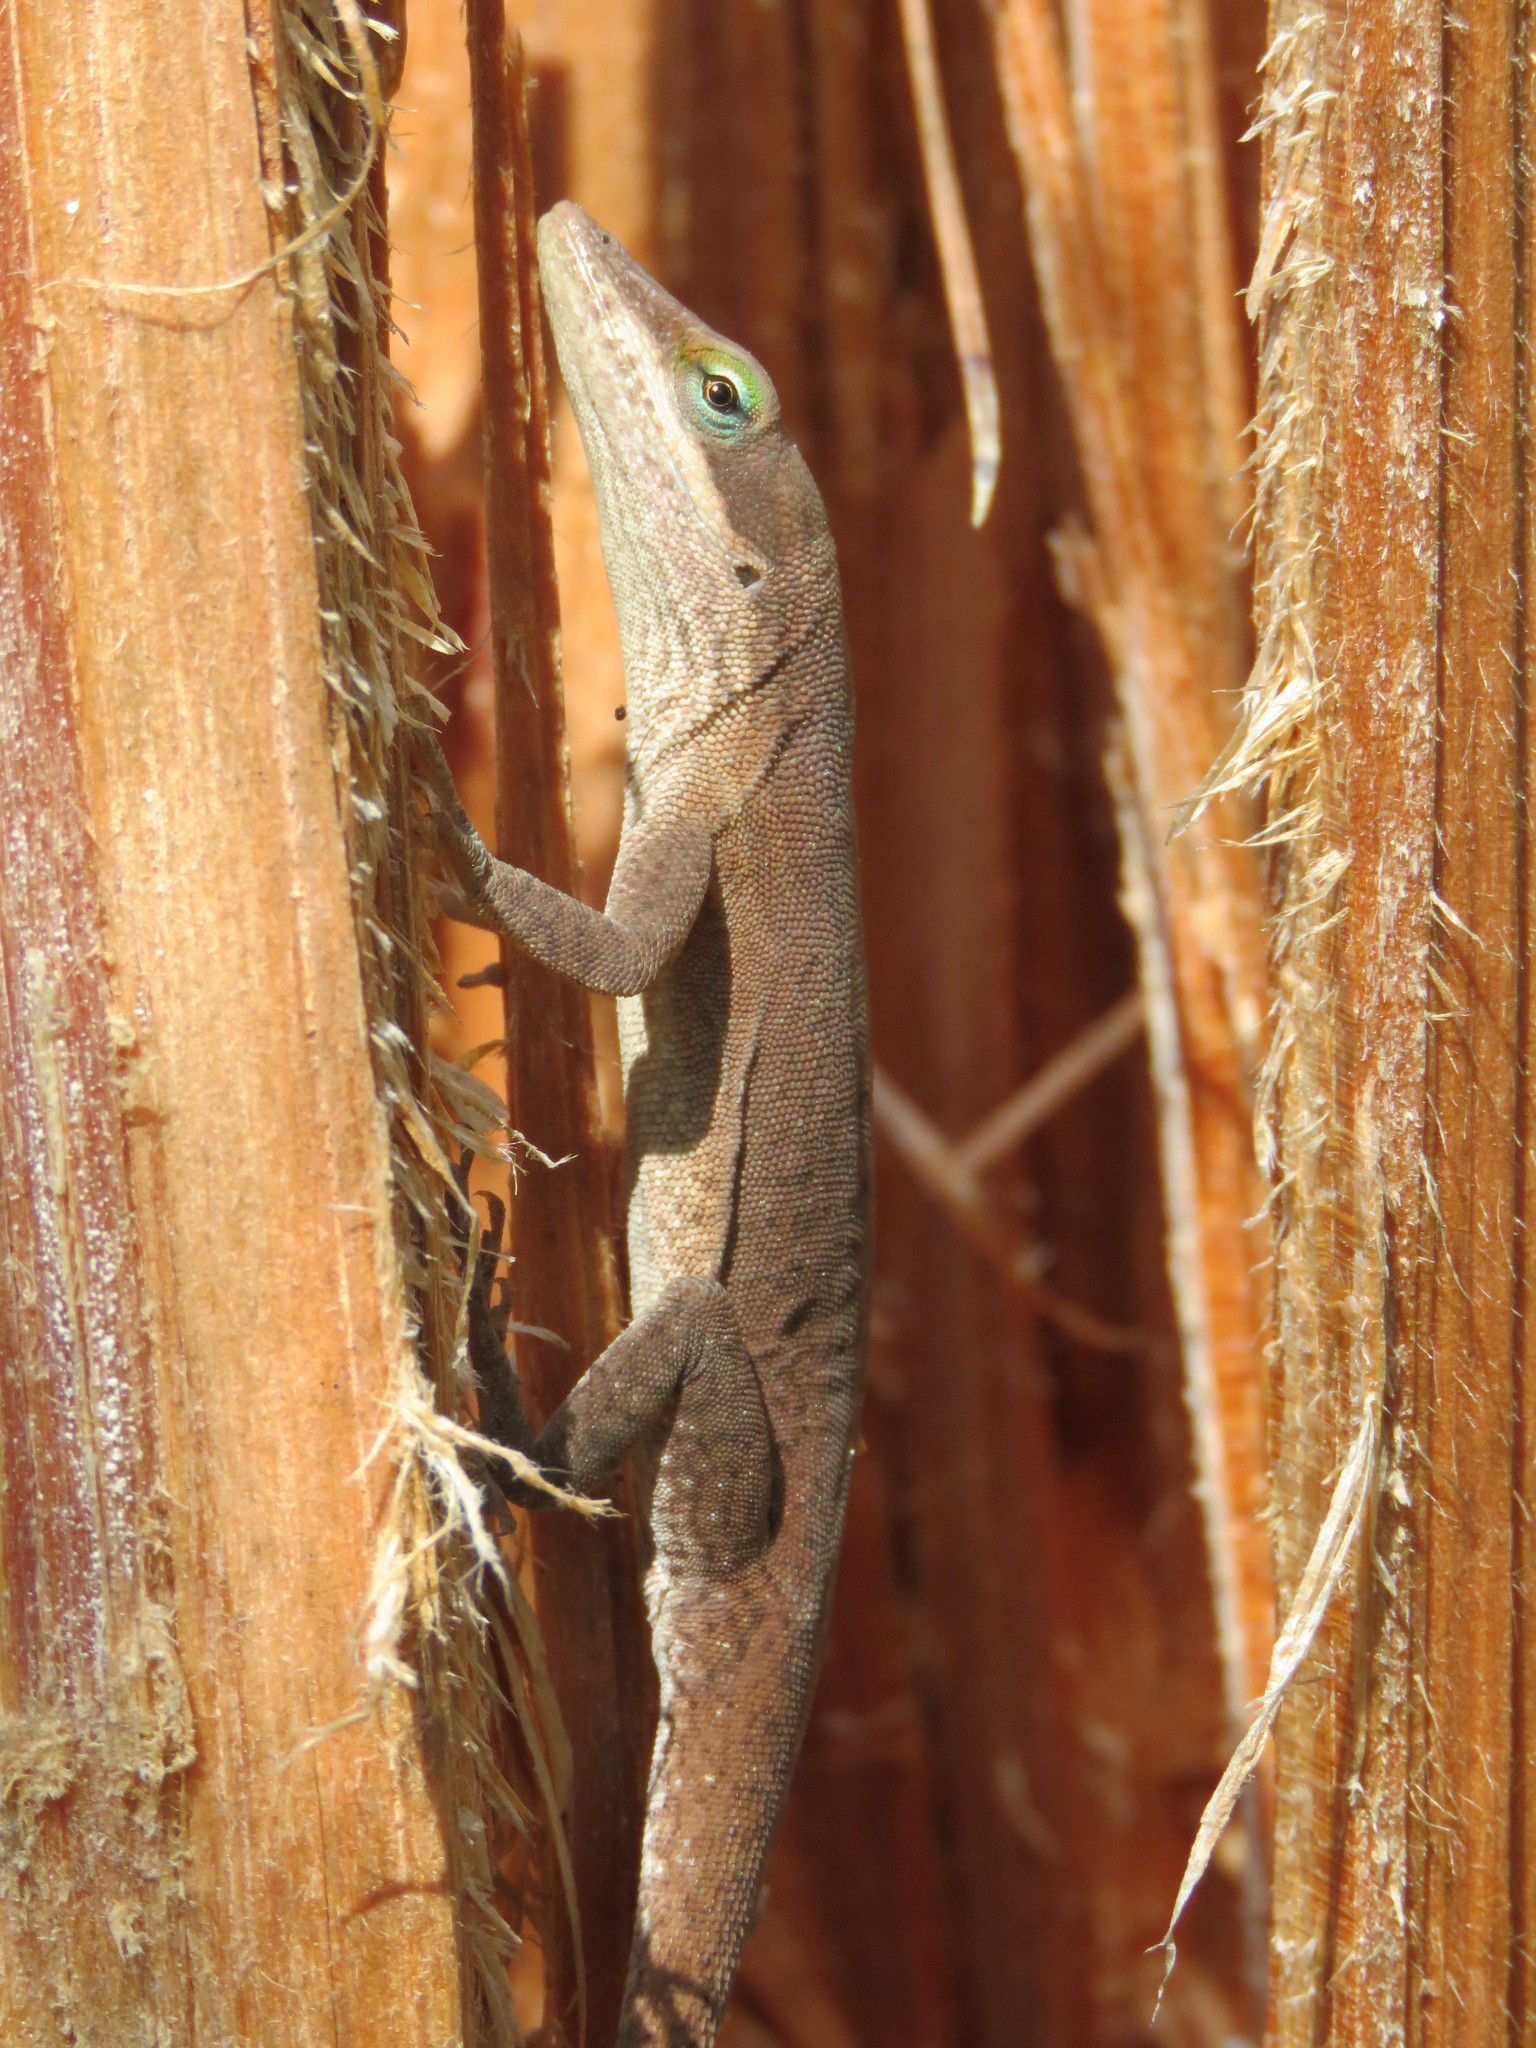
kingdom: Animalia
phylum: Chordata
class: Squamata
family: Dactyloidae
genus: Anolis
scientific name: Anolis carolinensis
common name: Green anole
